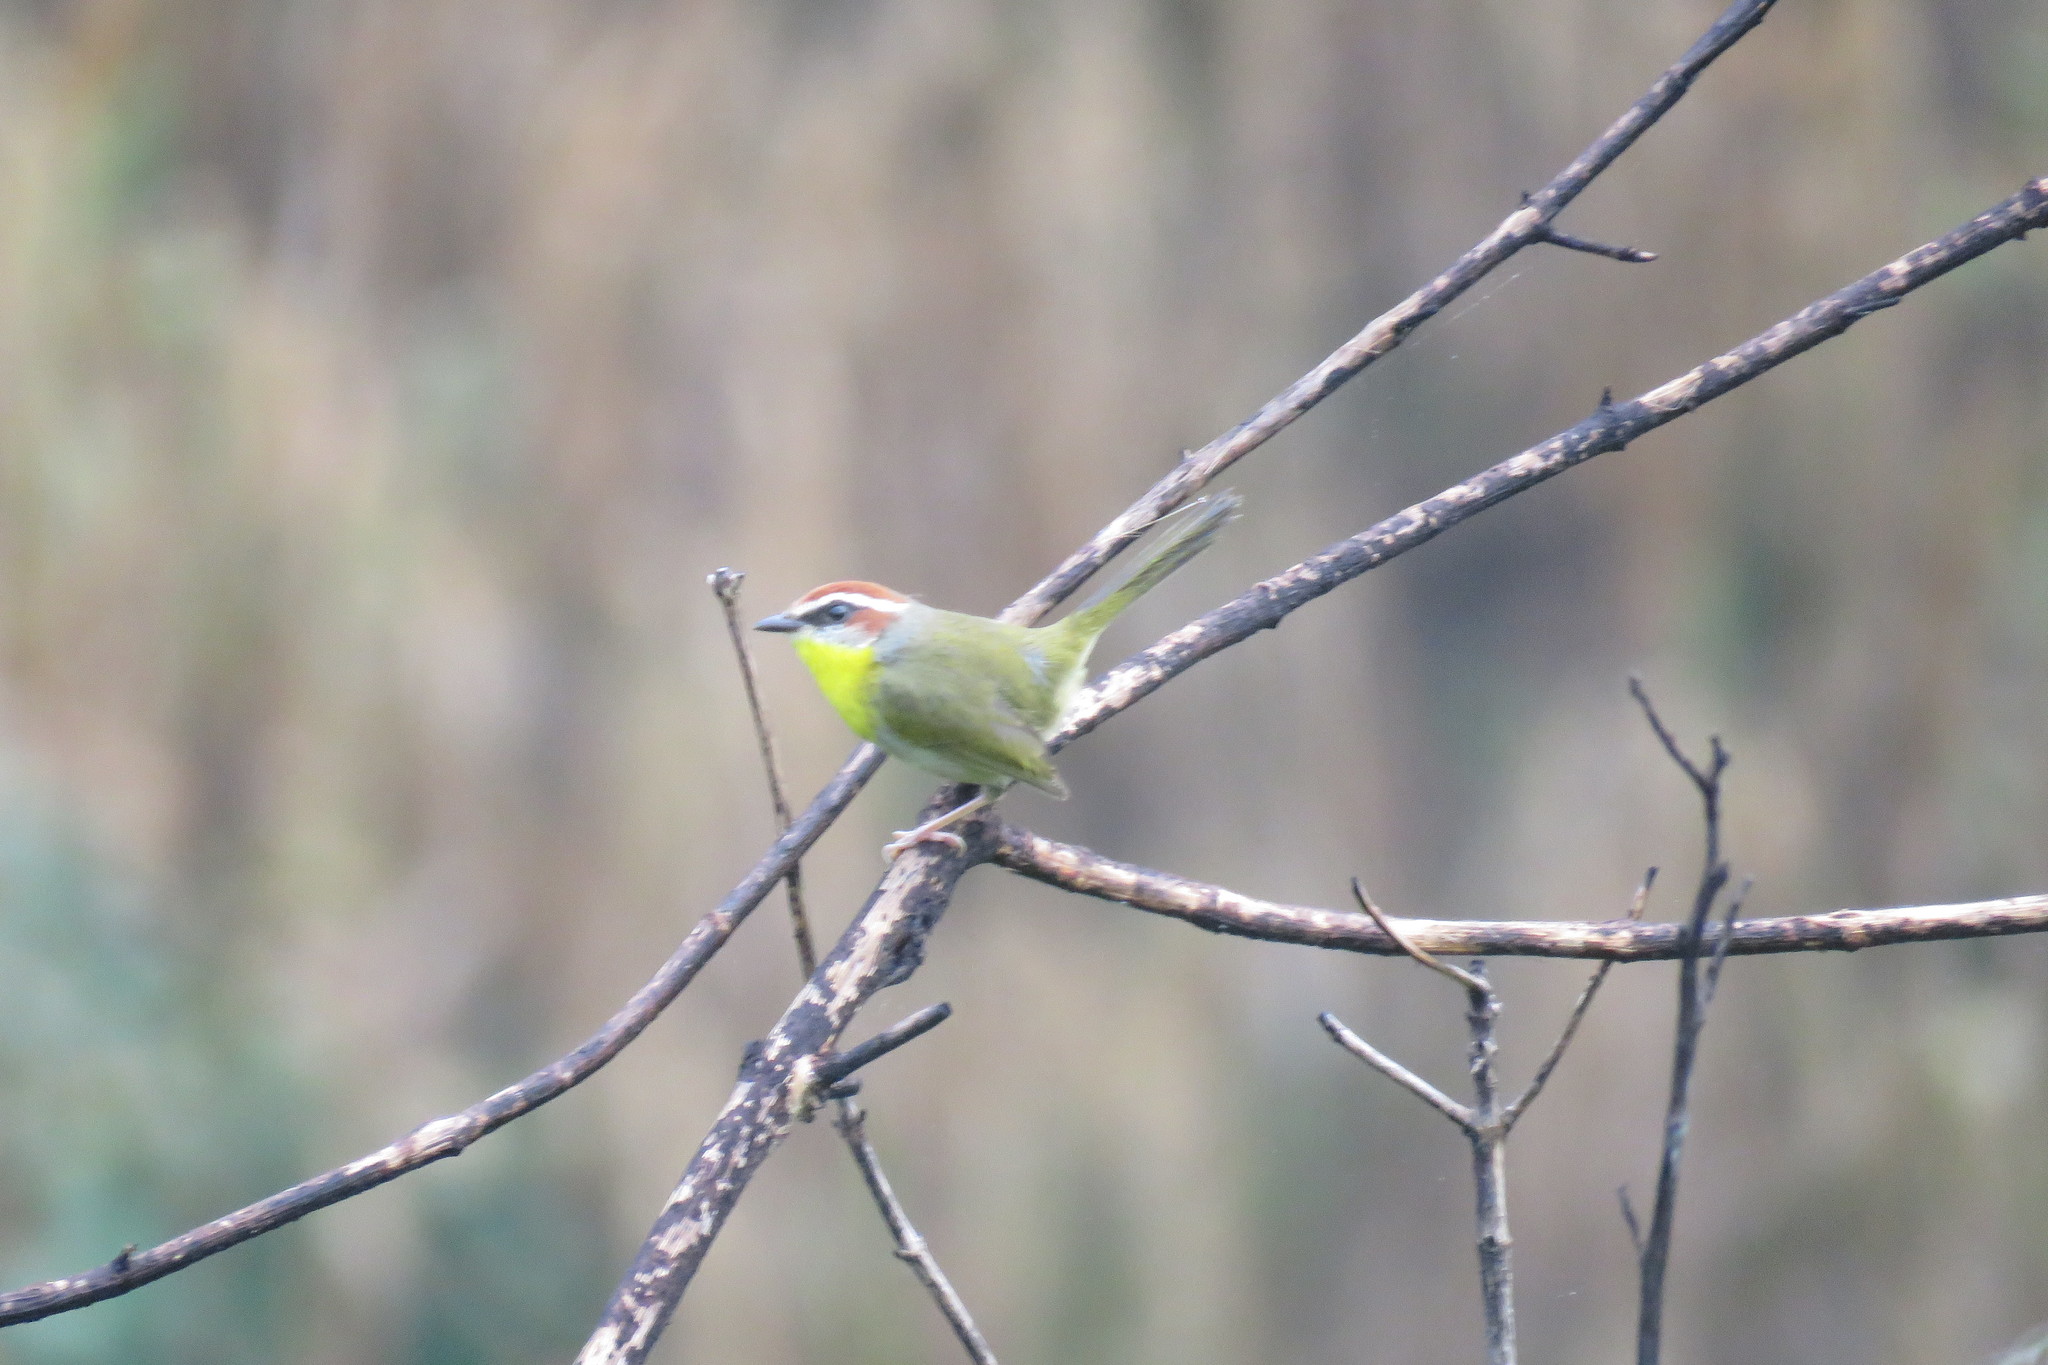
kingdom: Animalia
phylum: Chordata
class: Aves
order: Passeriformes
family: Parulidae
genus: Basileuterus
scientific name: Basileuterus rufifrons
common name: Rufous-capped warbler
